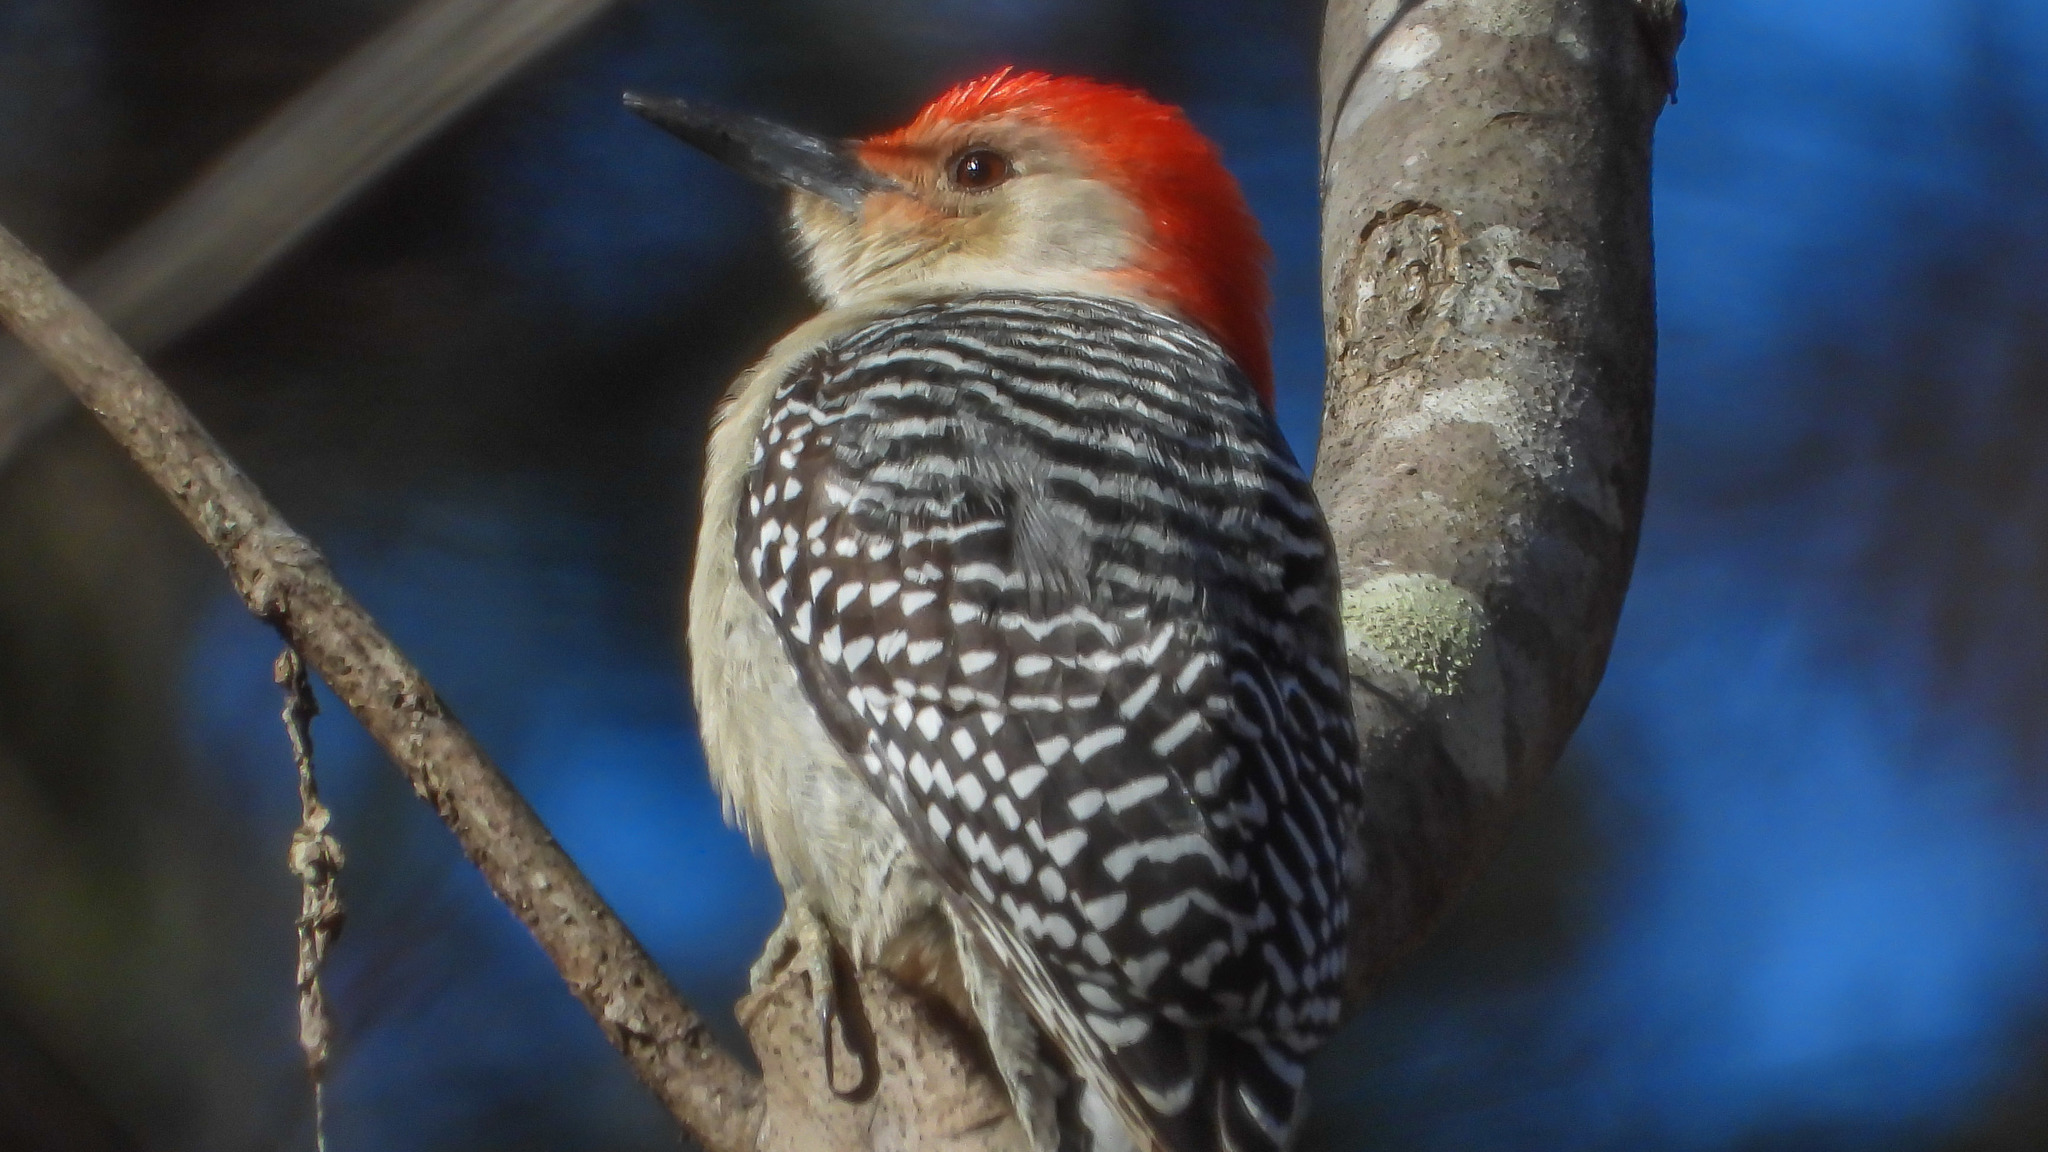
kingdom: Animalia
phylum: Chordata
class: Aves
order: Piciformes
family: Picidae
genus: Melanerpes
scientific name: Melanerpes carolinus
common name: Red-bellied woodpecker
